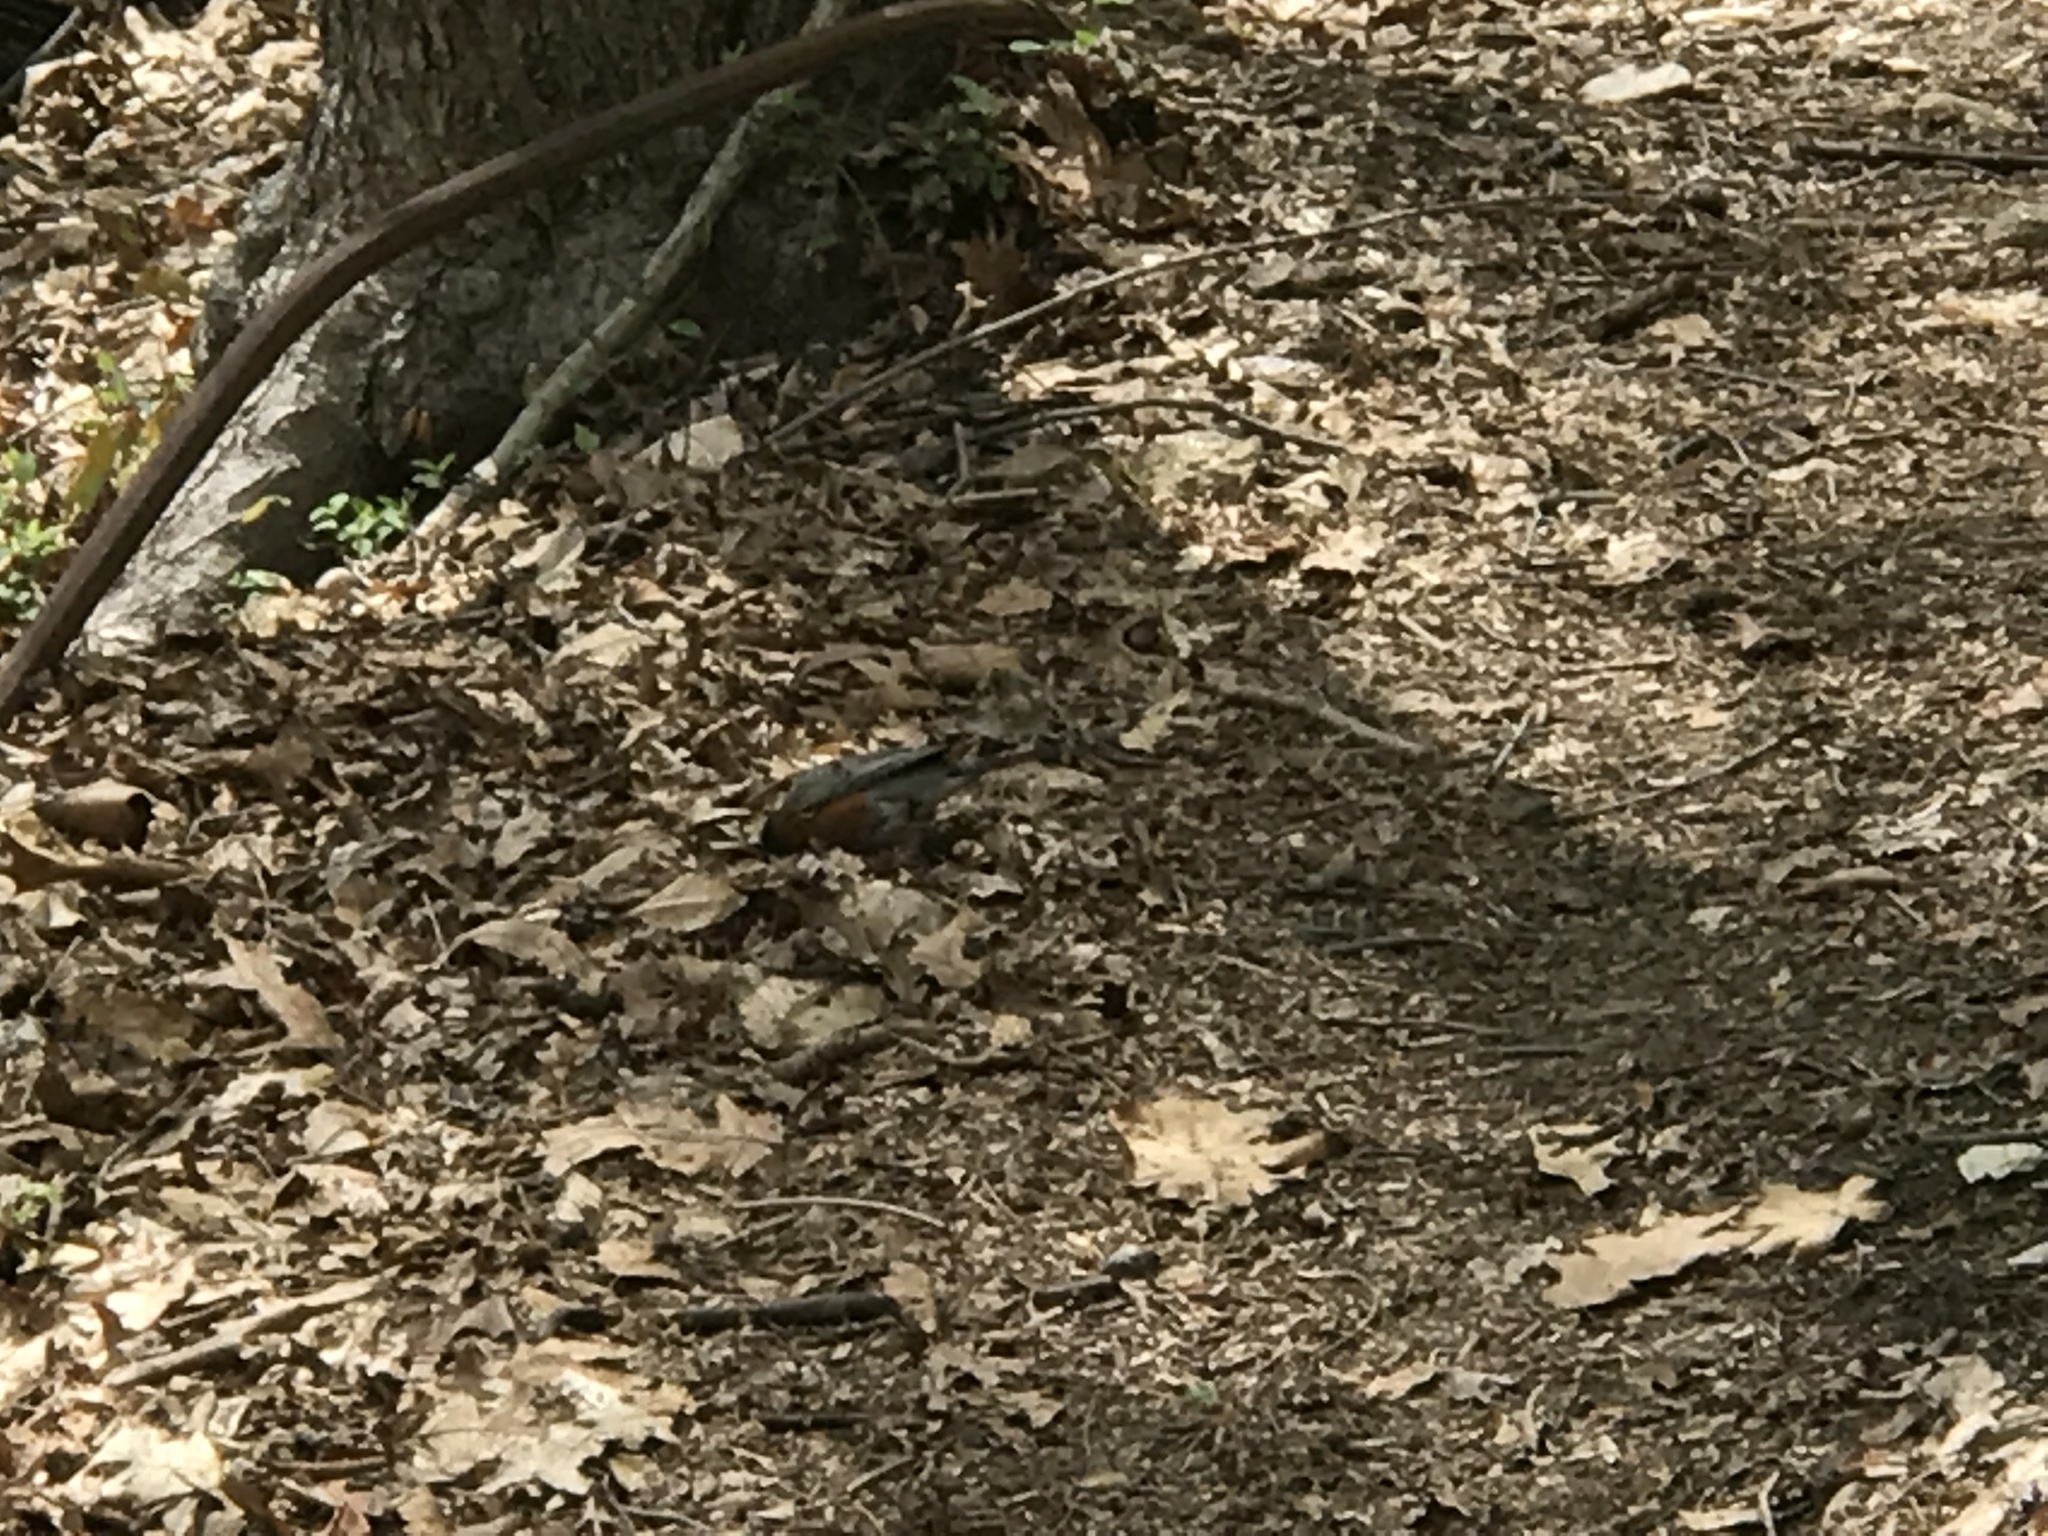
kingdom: Animalia
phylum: Chordata
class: Aves
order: Passeriformes
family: Turdidae
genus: Turdus
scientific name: Turdus migratorius
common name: American robin
